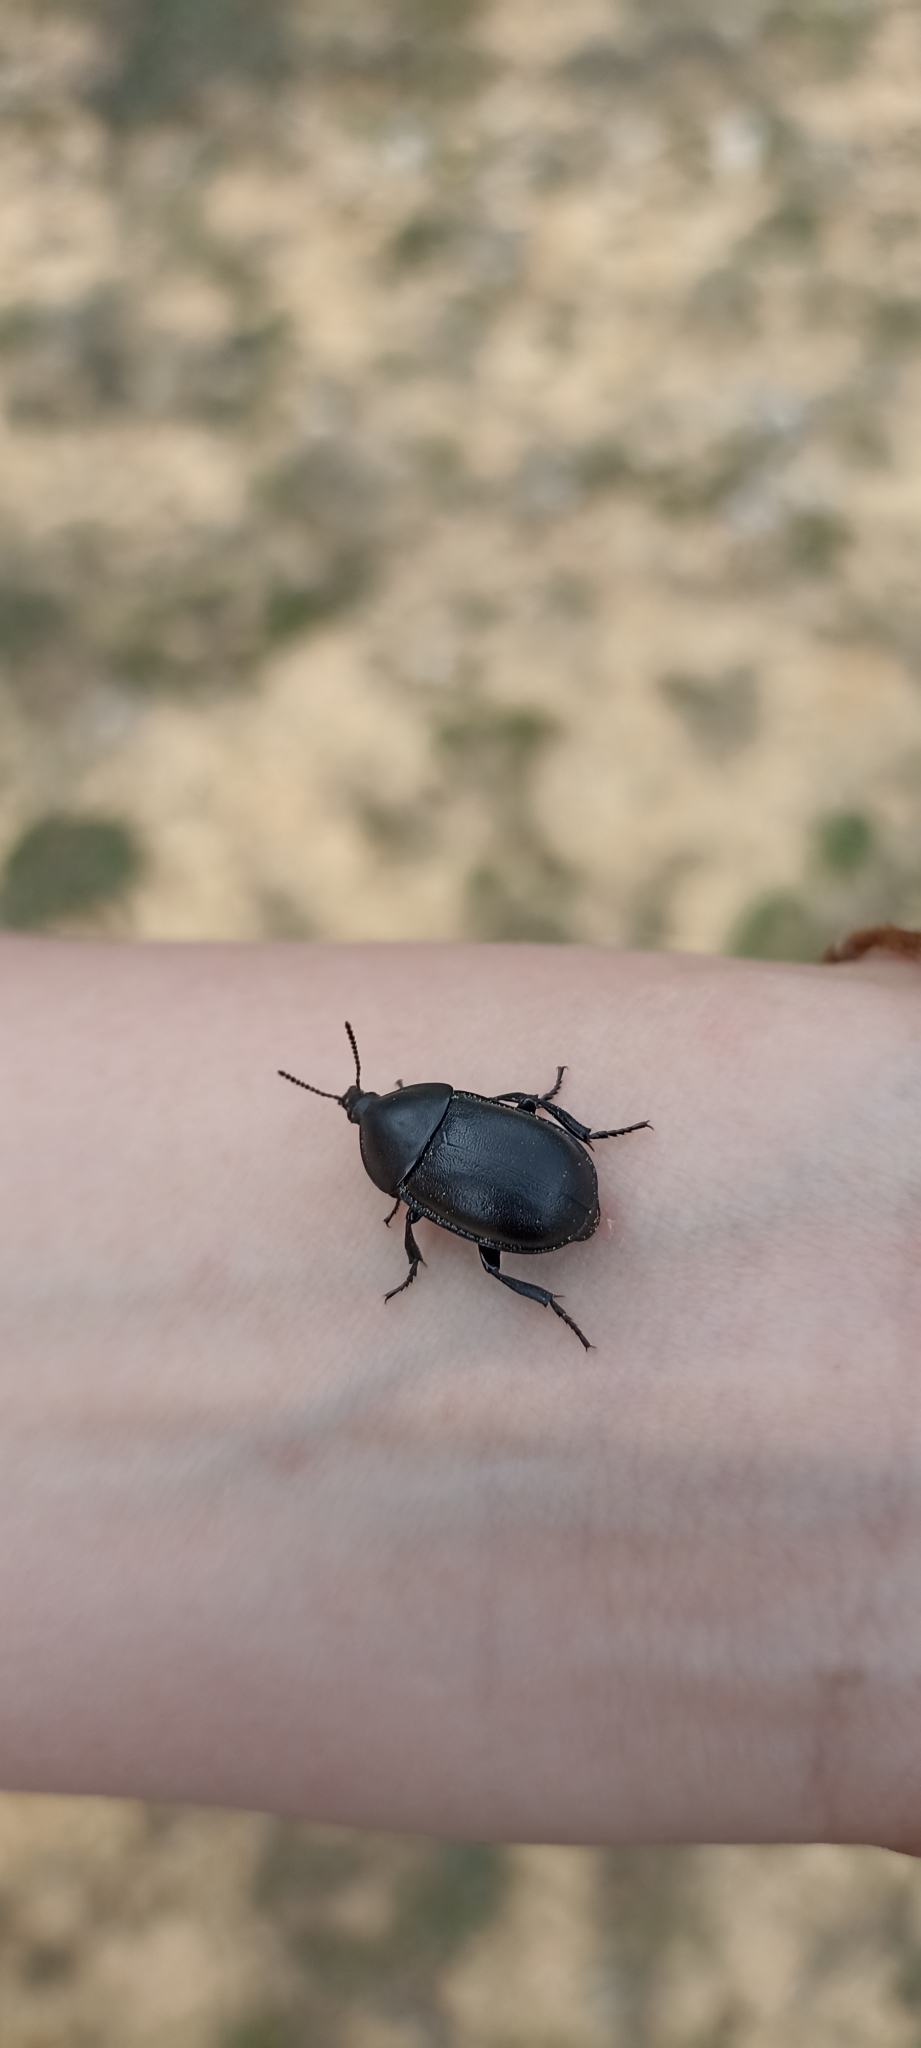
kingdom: Animalia
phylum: Arthropoda
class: Insecta
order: Coleoptera
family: Staphylinidae
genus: Silpha
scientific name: Silpha laevigata
